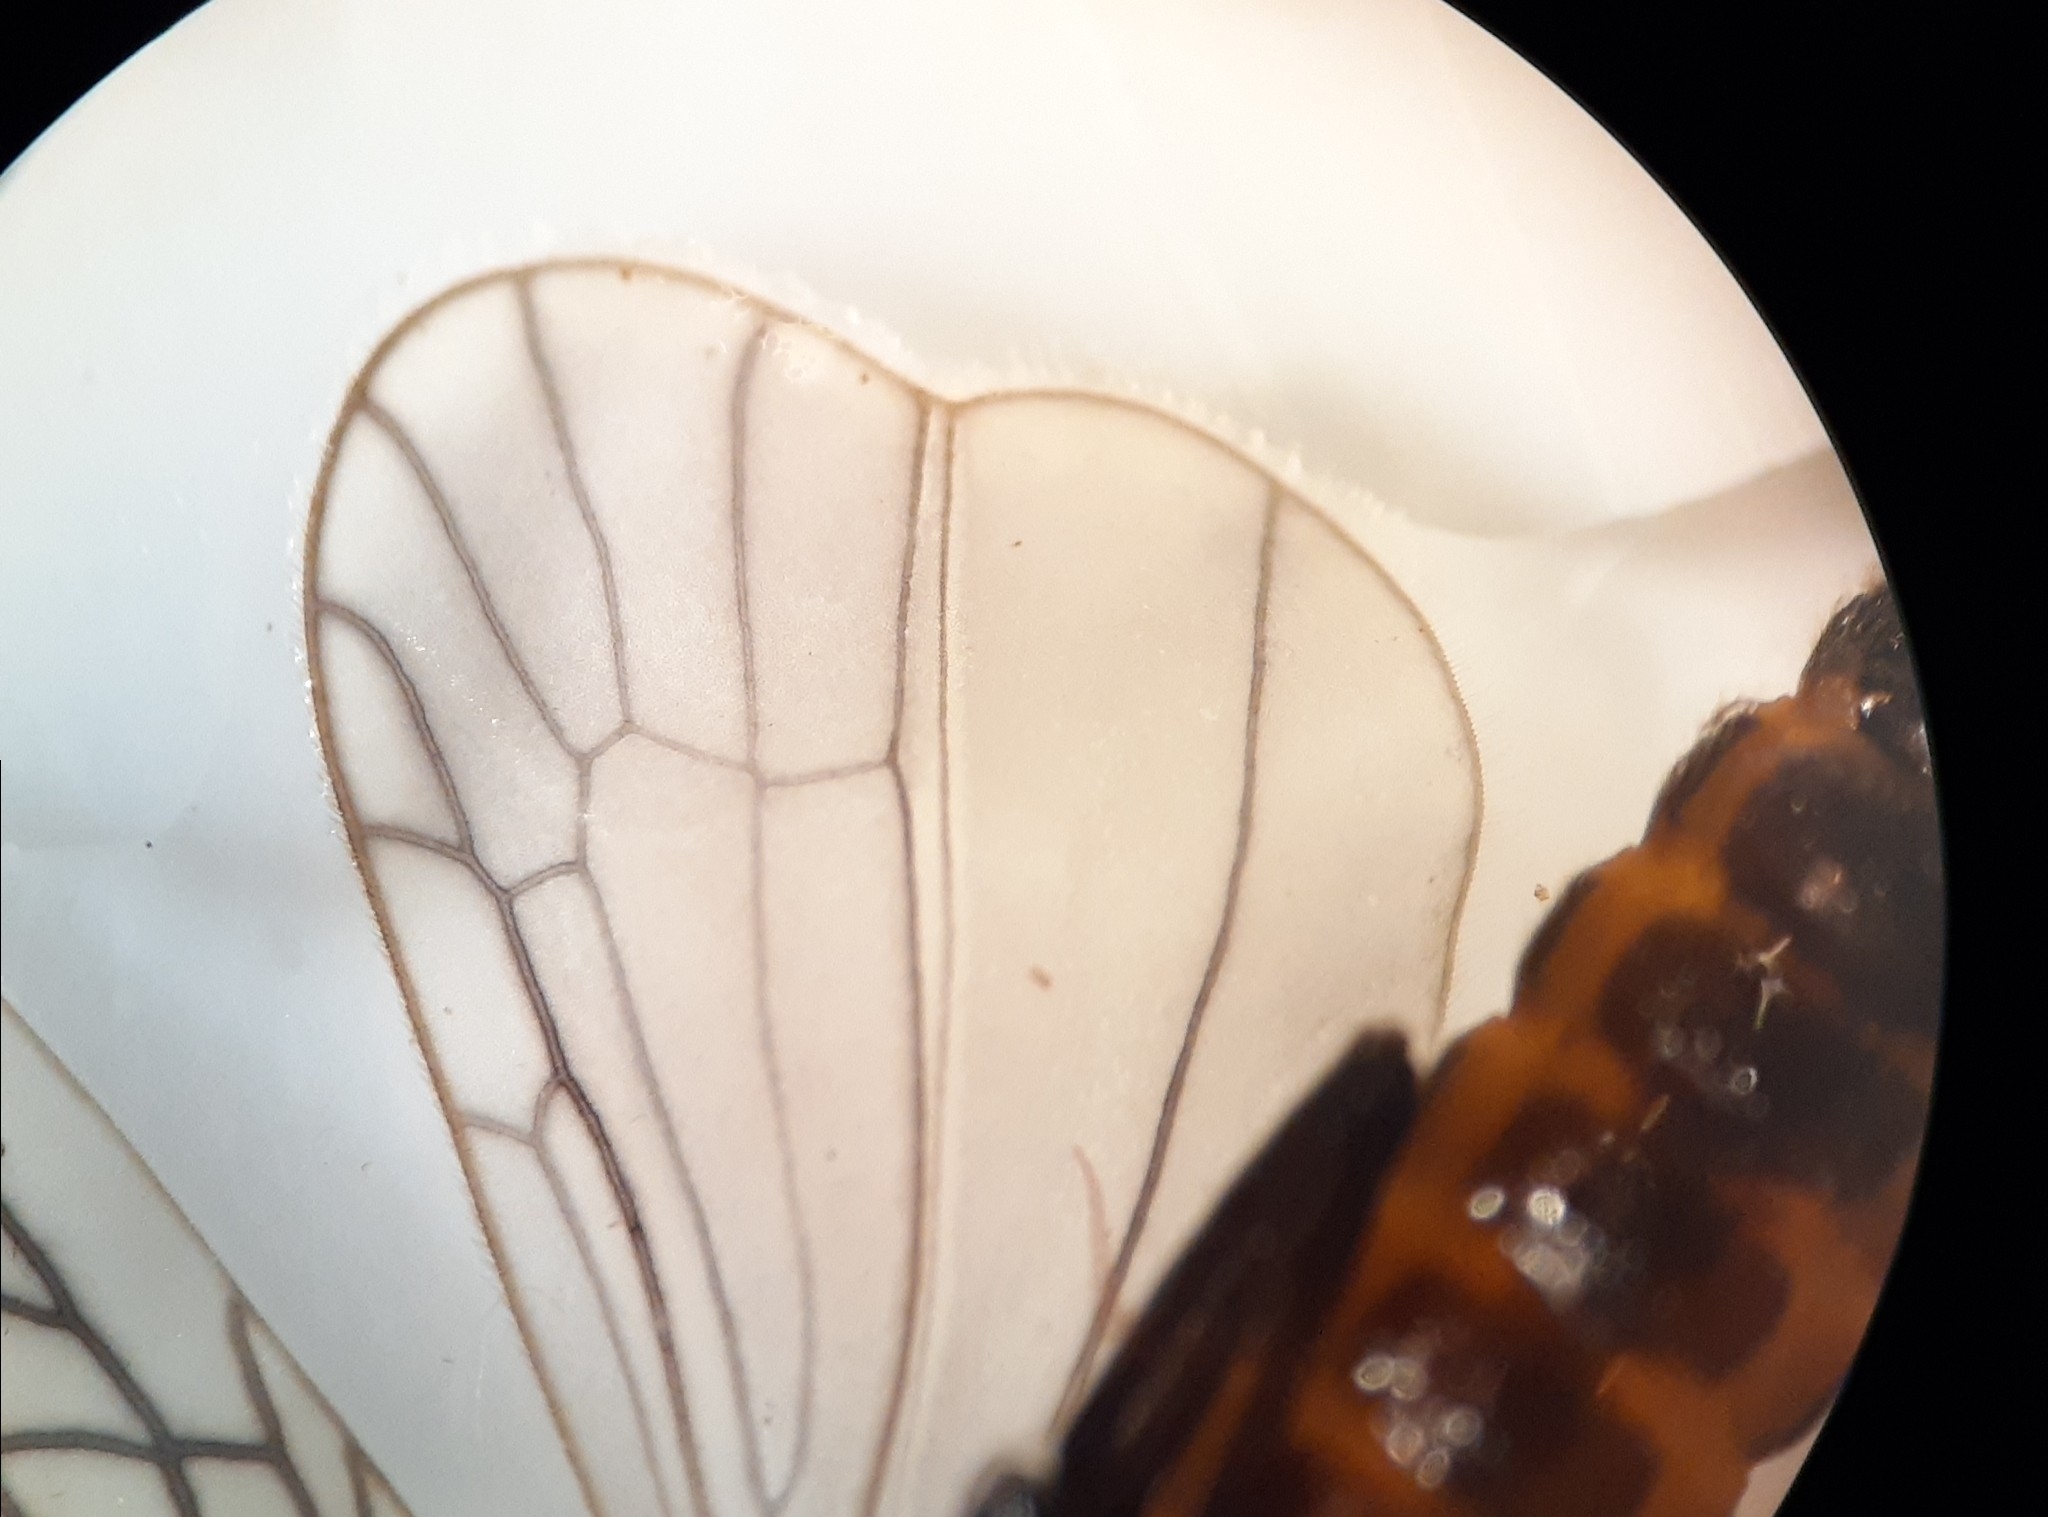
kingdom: Animalia
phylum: Arthropoda
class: Insecta
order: Plecoptera
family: Capniidae
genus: Allocapnia
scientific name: Allocapnia granulata
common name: Common snowfly
